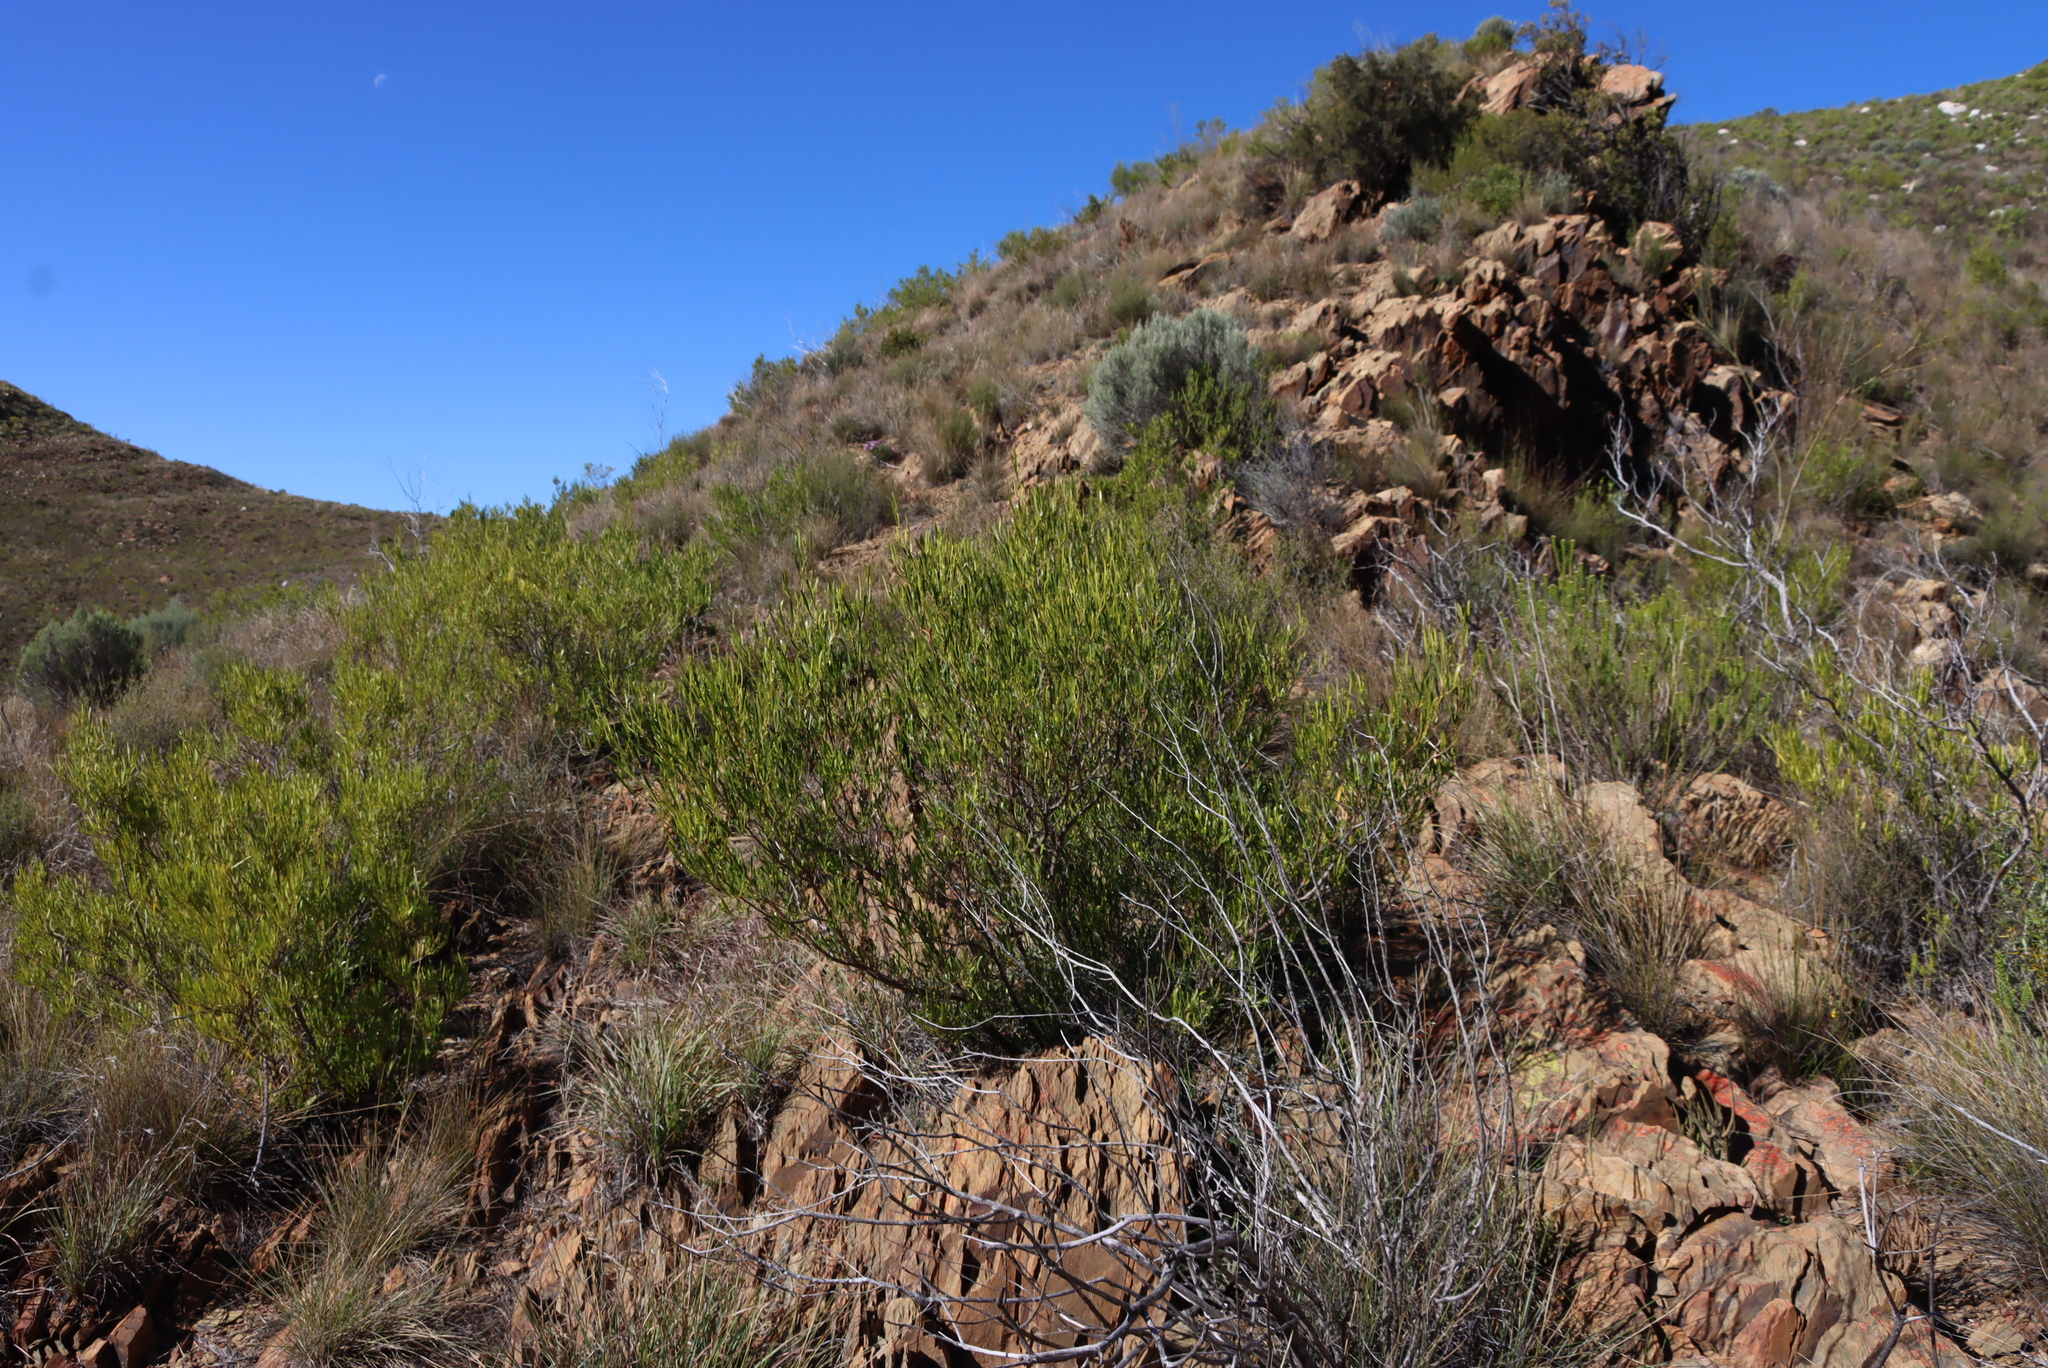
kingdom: Plantae
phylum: Tracheophyta
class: Magnoliopsida
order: Sapindales
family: Sapindaceae
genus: Dodonaea
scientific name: Dodonaea viscosa
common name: Hopbush
